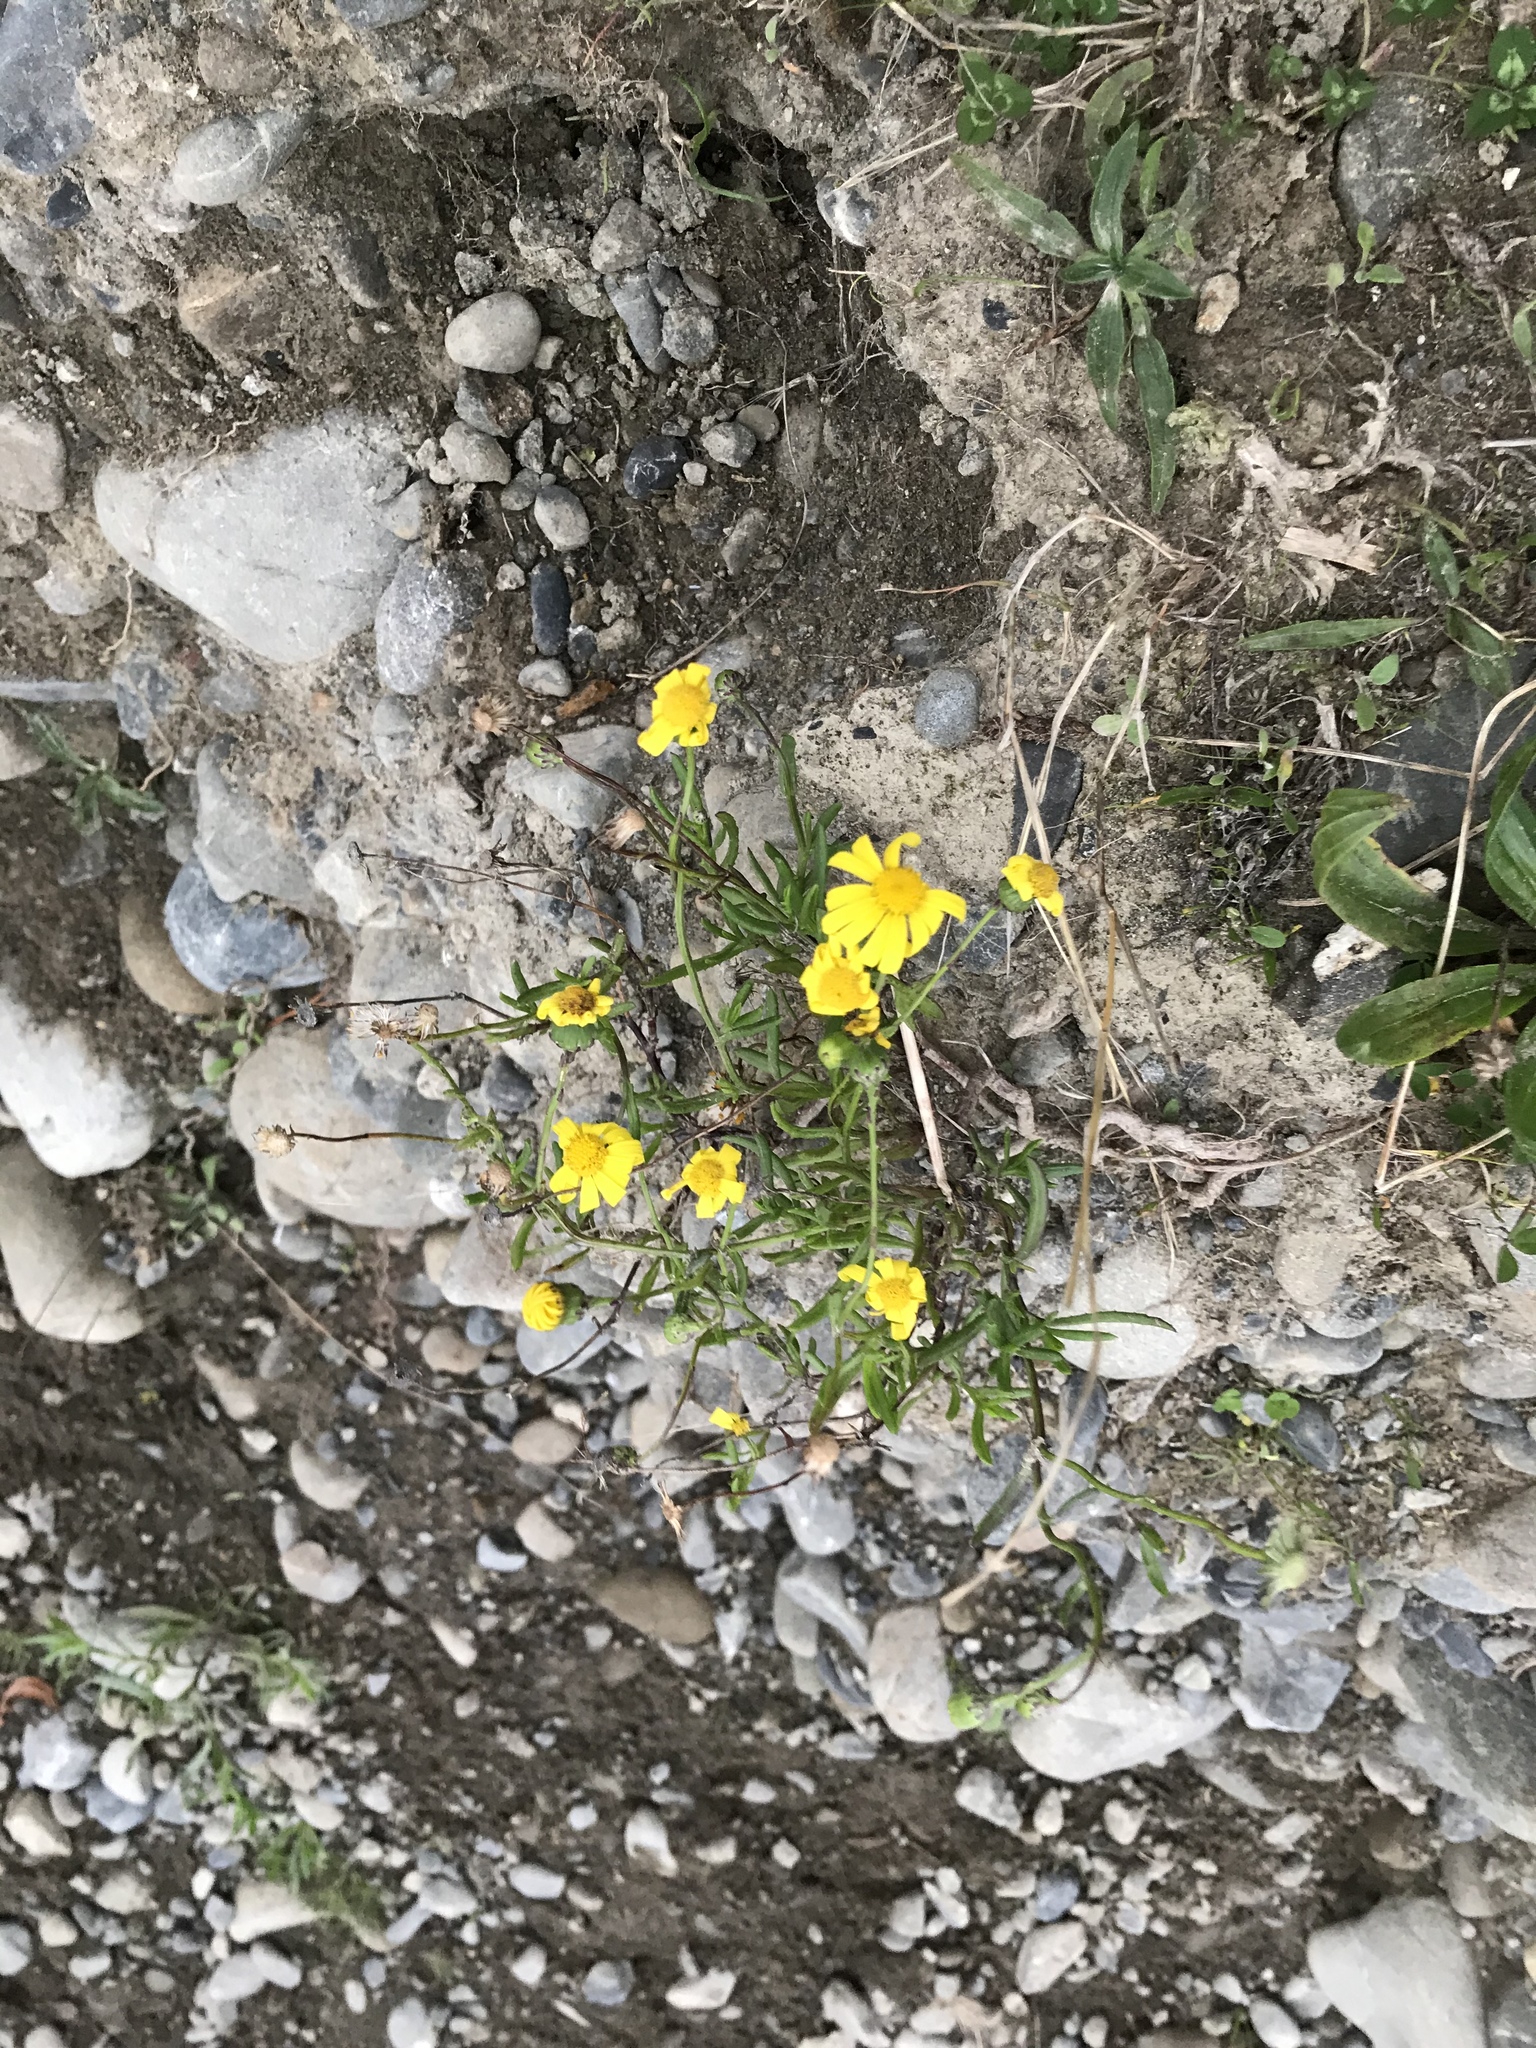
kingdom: Plantae
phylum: Tracheophyta
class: Magnoliopsida
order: Asterales
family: Asteraceae
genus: Senecio
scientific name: Senecio skirrhodon
